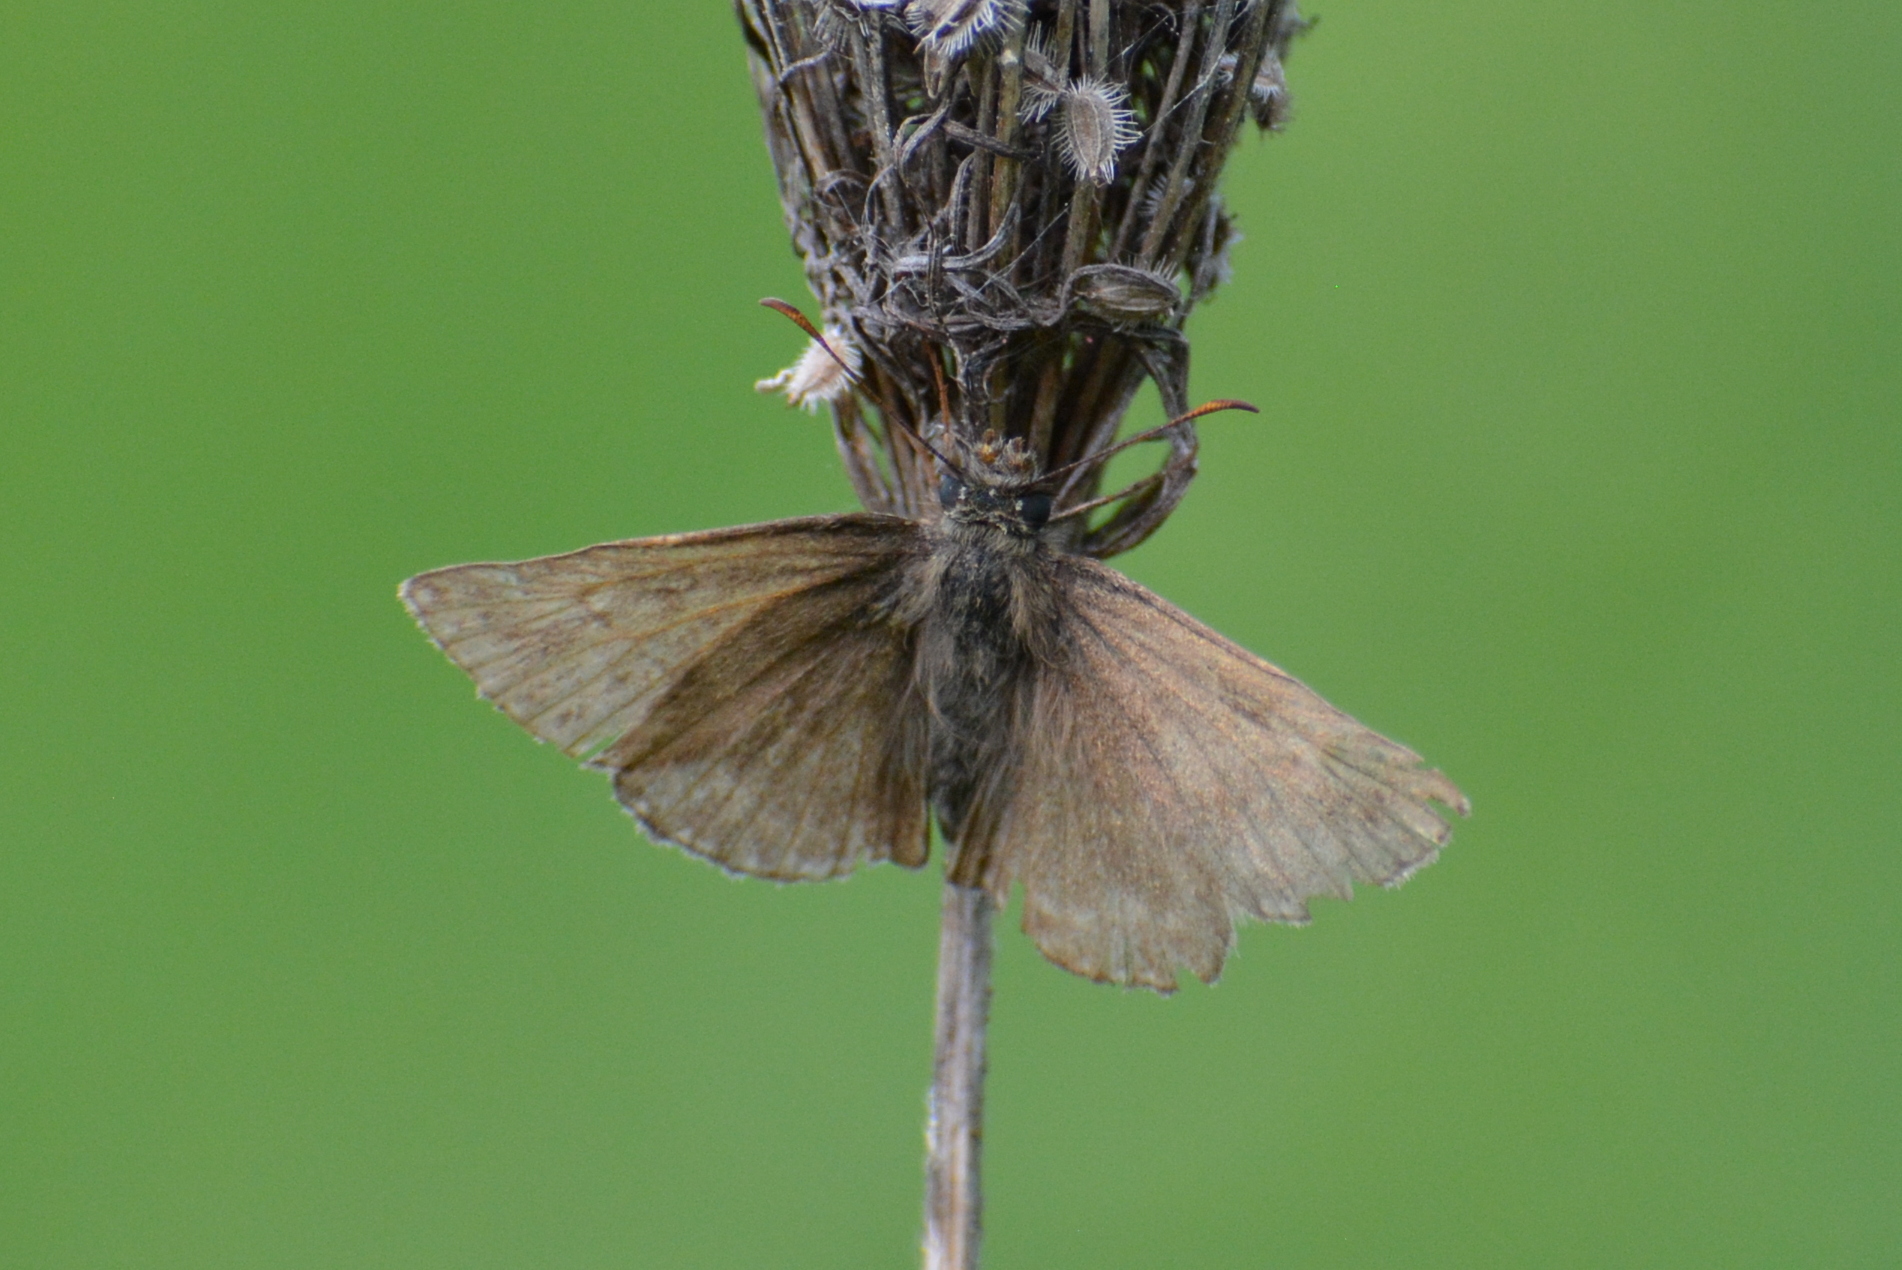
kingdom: Animalia
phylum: Arthropoda
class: Insecta
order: Lepidoptera
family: Hesperiidae
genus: Erynnis
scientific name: Erynnis tages
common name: Dingy skipper
